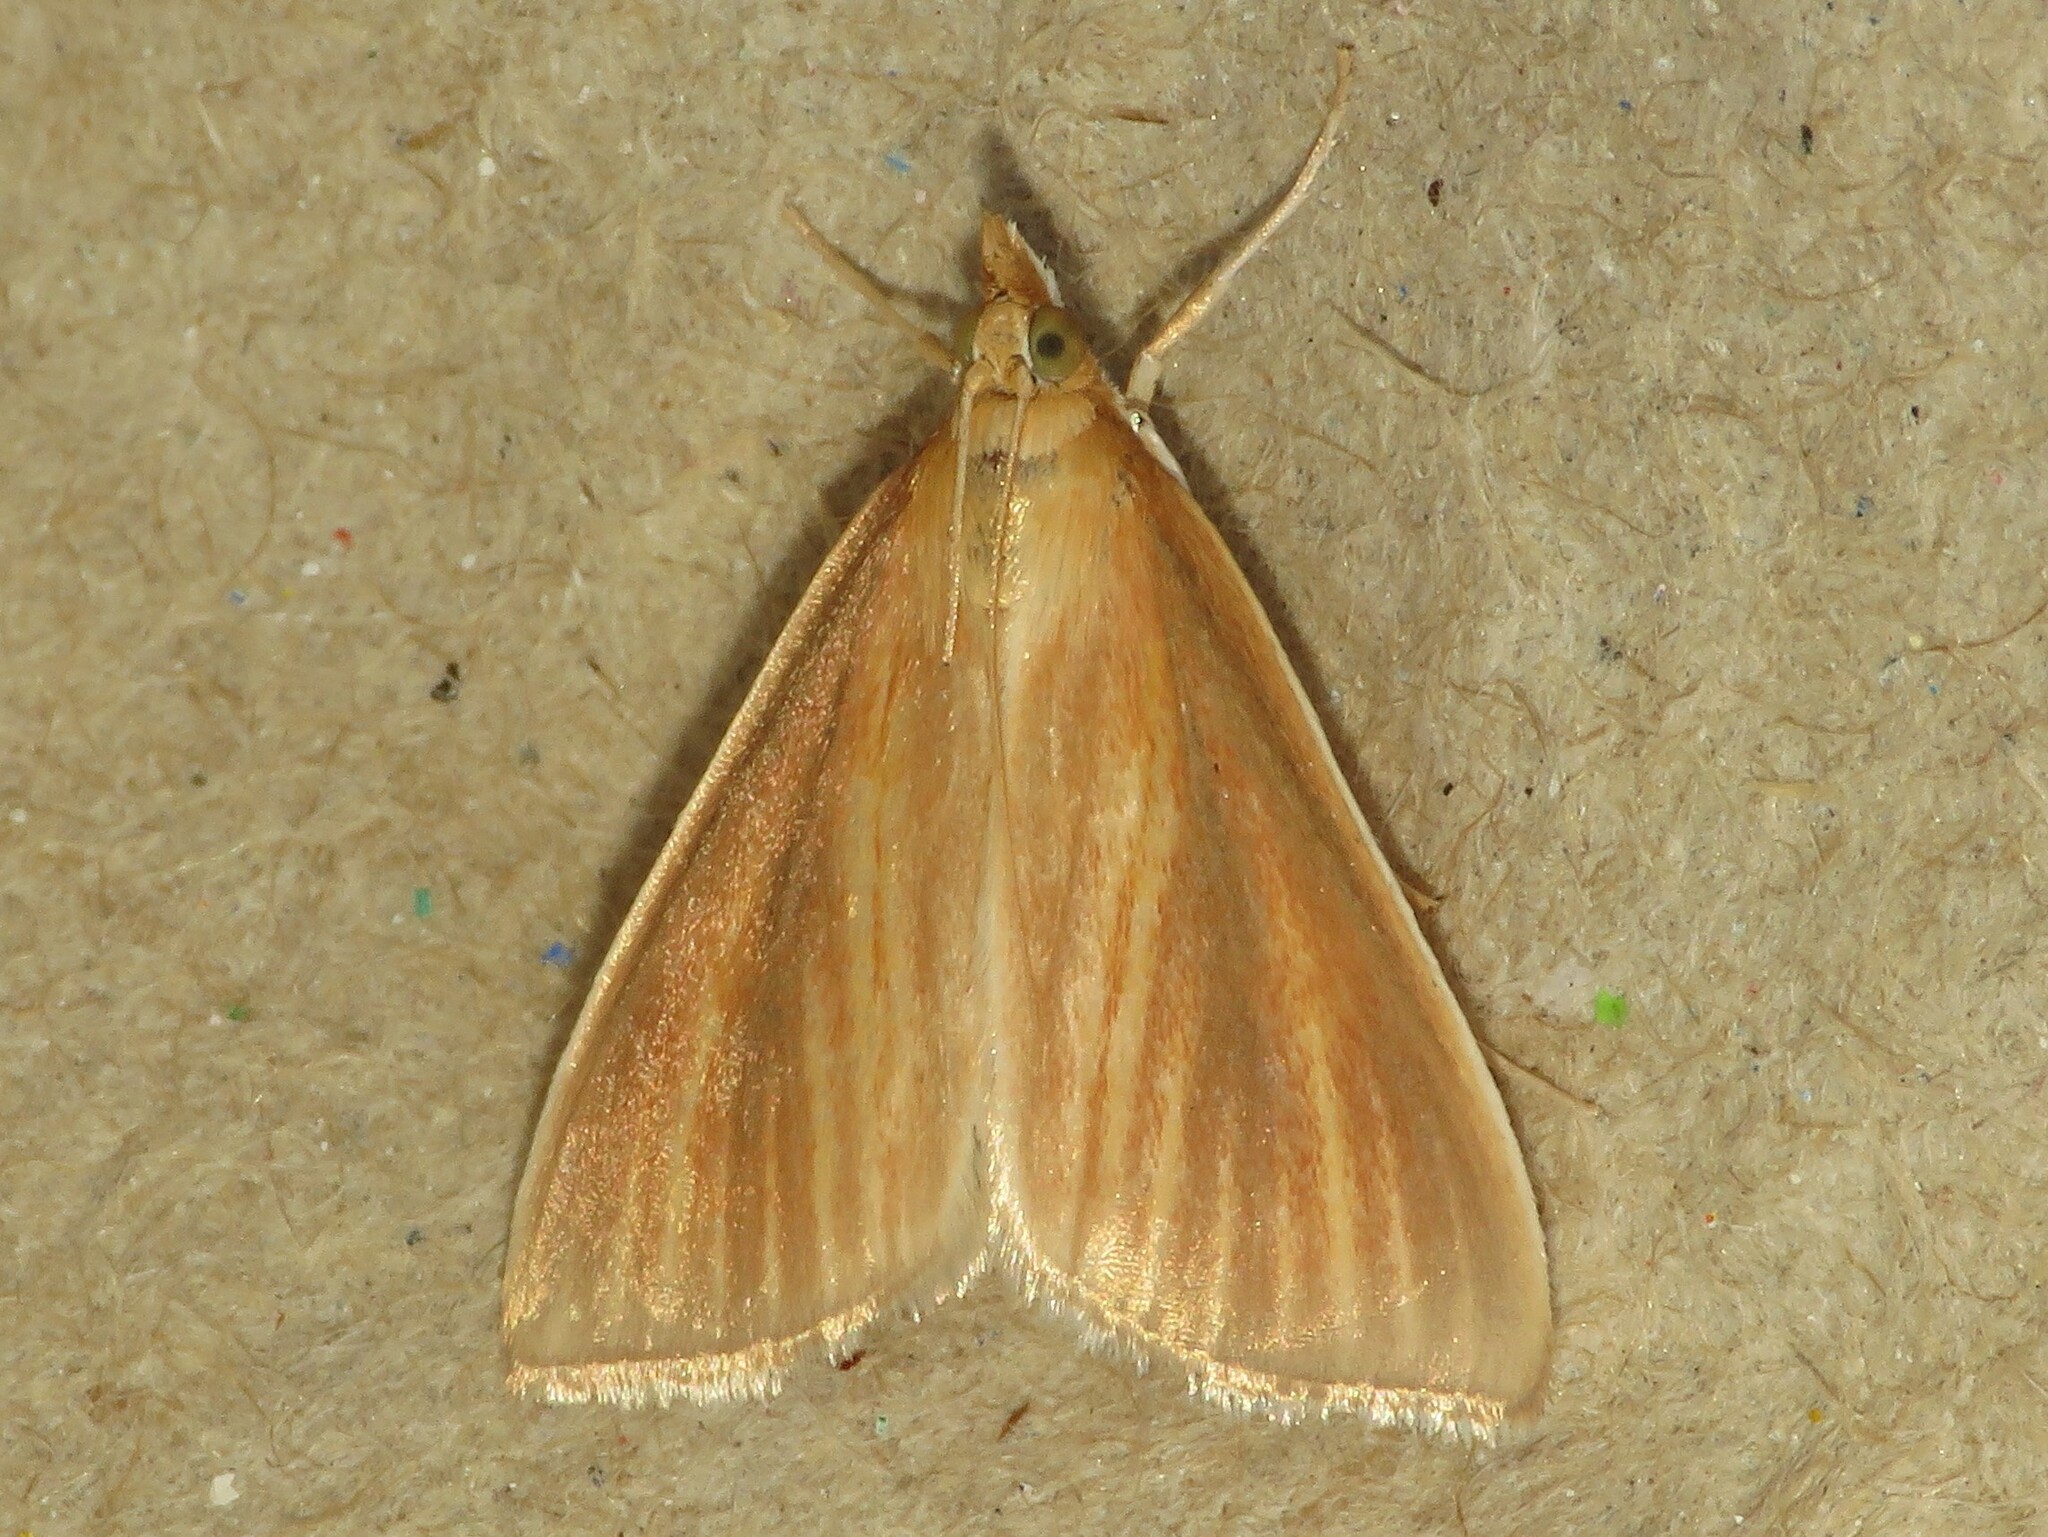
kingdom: Animalia
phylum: Arthropoda
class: Insecta
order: Lepidoptera
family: Crambidae
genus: Nascia
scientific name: Nascia acutellus
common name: Streaked orange moth
